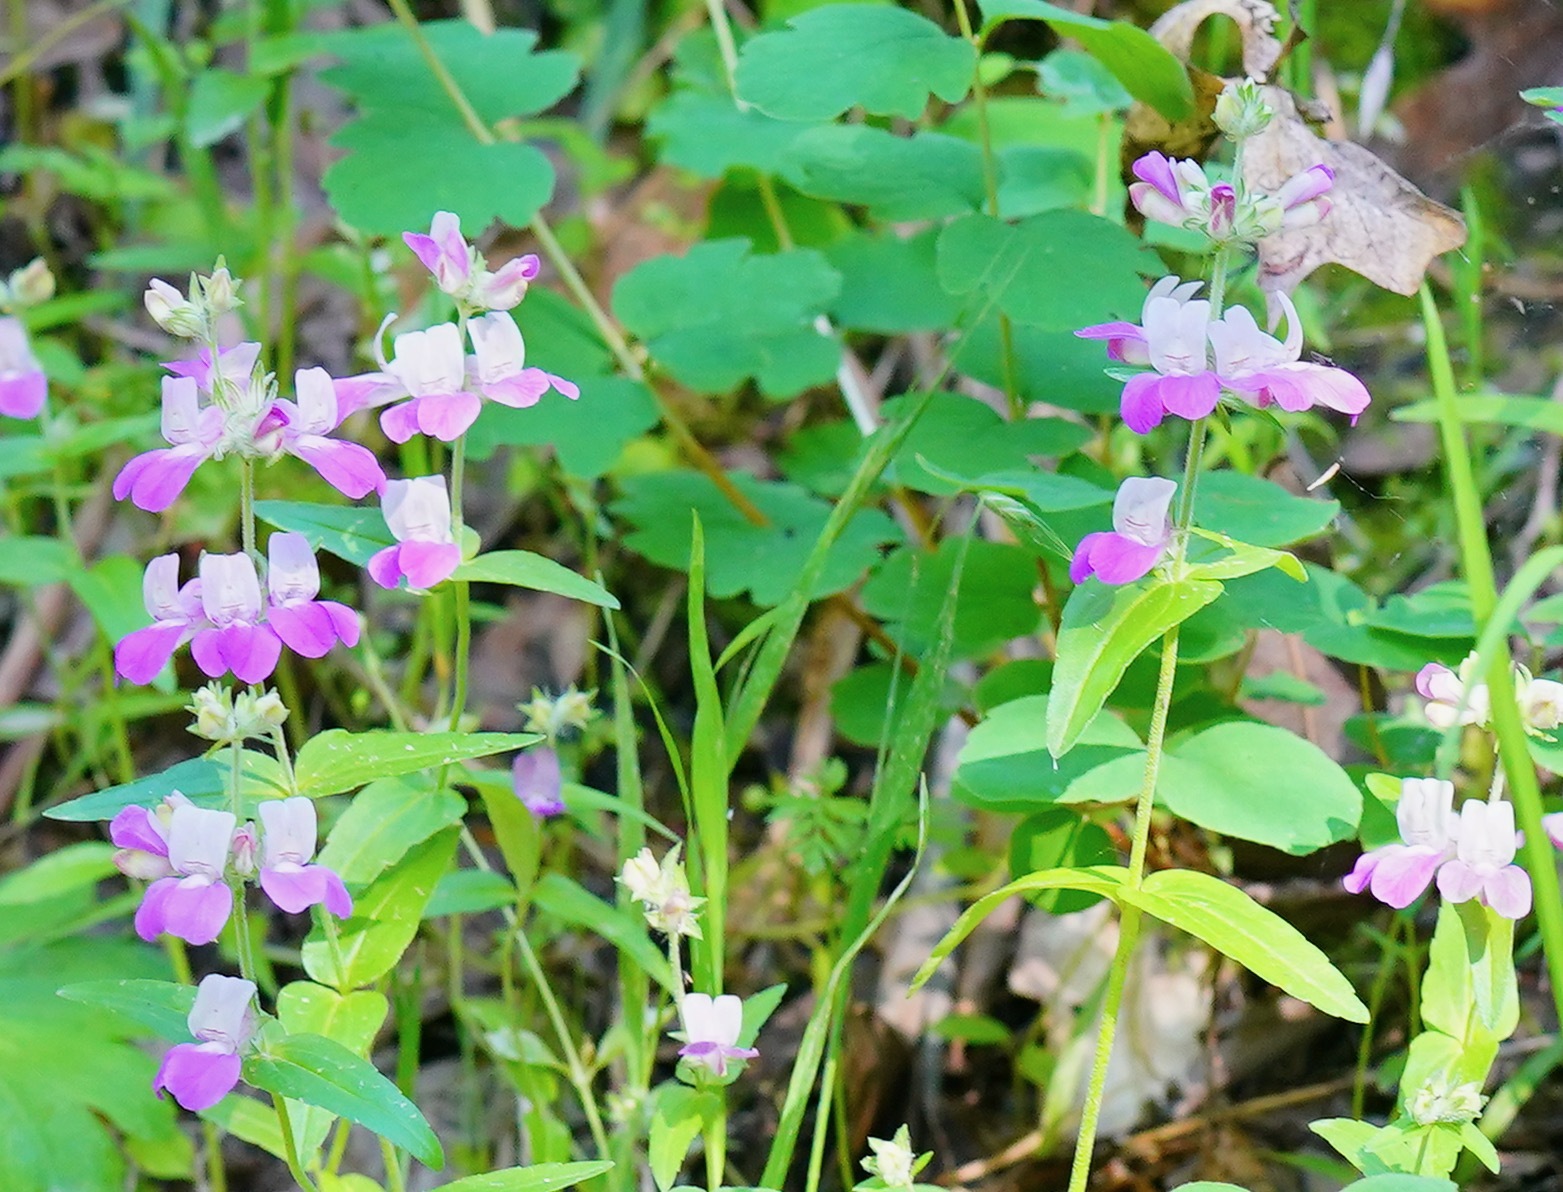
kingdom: Plantae
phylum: Tracheophyta
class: Magnoliopsida
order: Lamiales
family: Plantaginaceae
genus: Collinsia
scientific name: Collinsia heterophylla
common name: Chinese-houses
